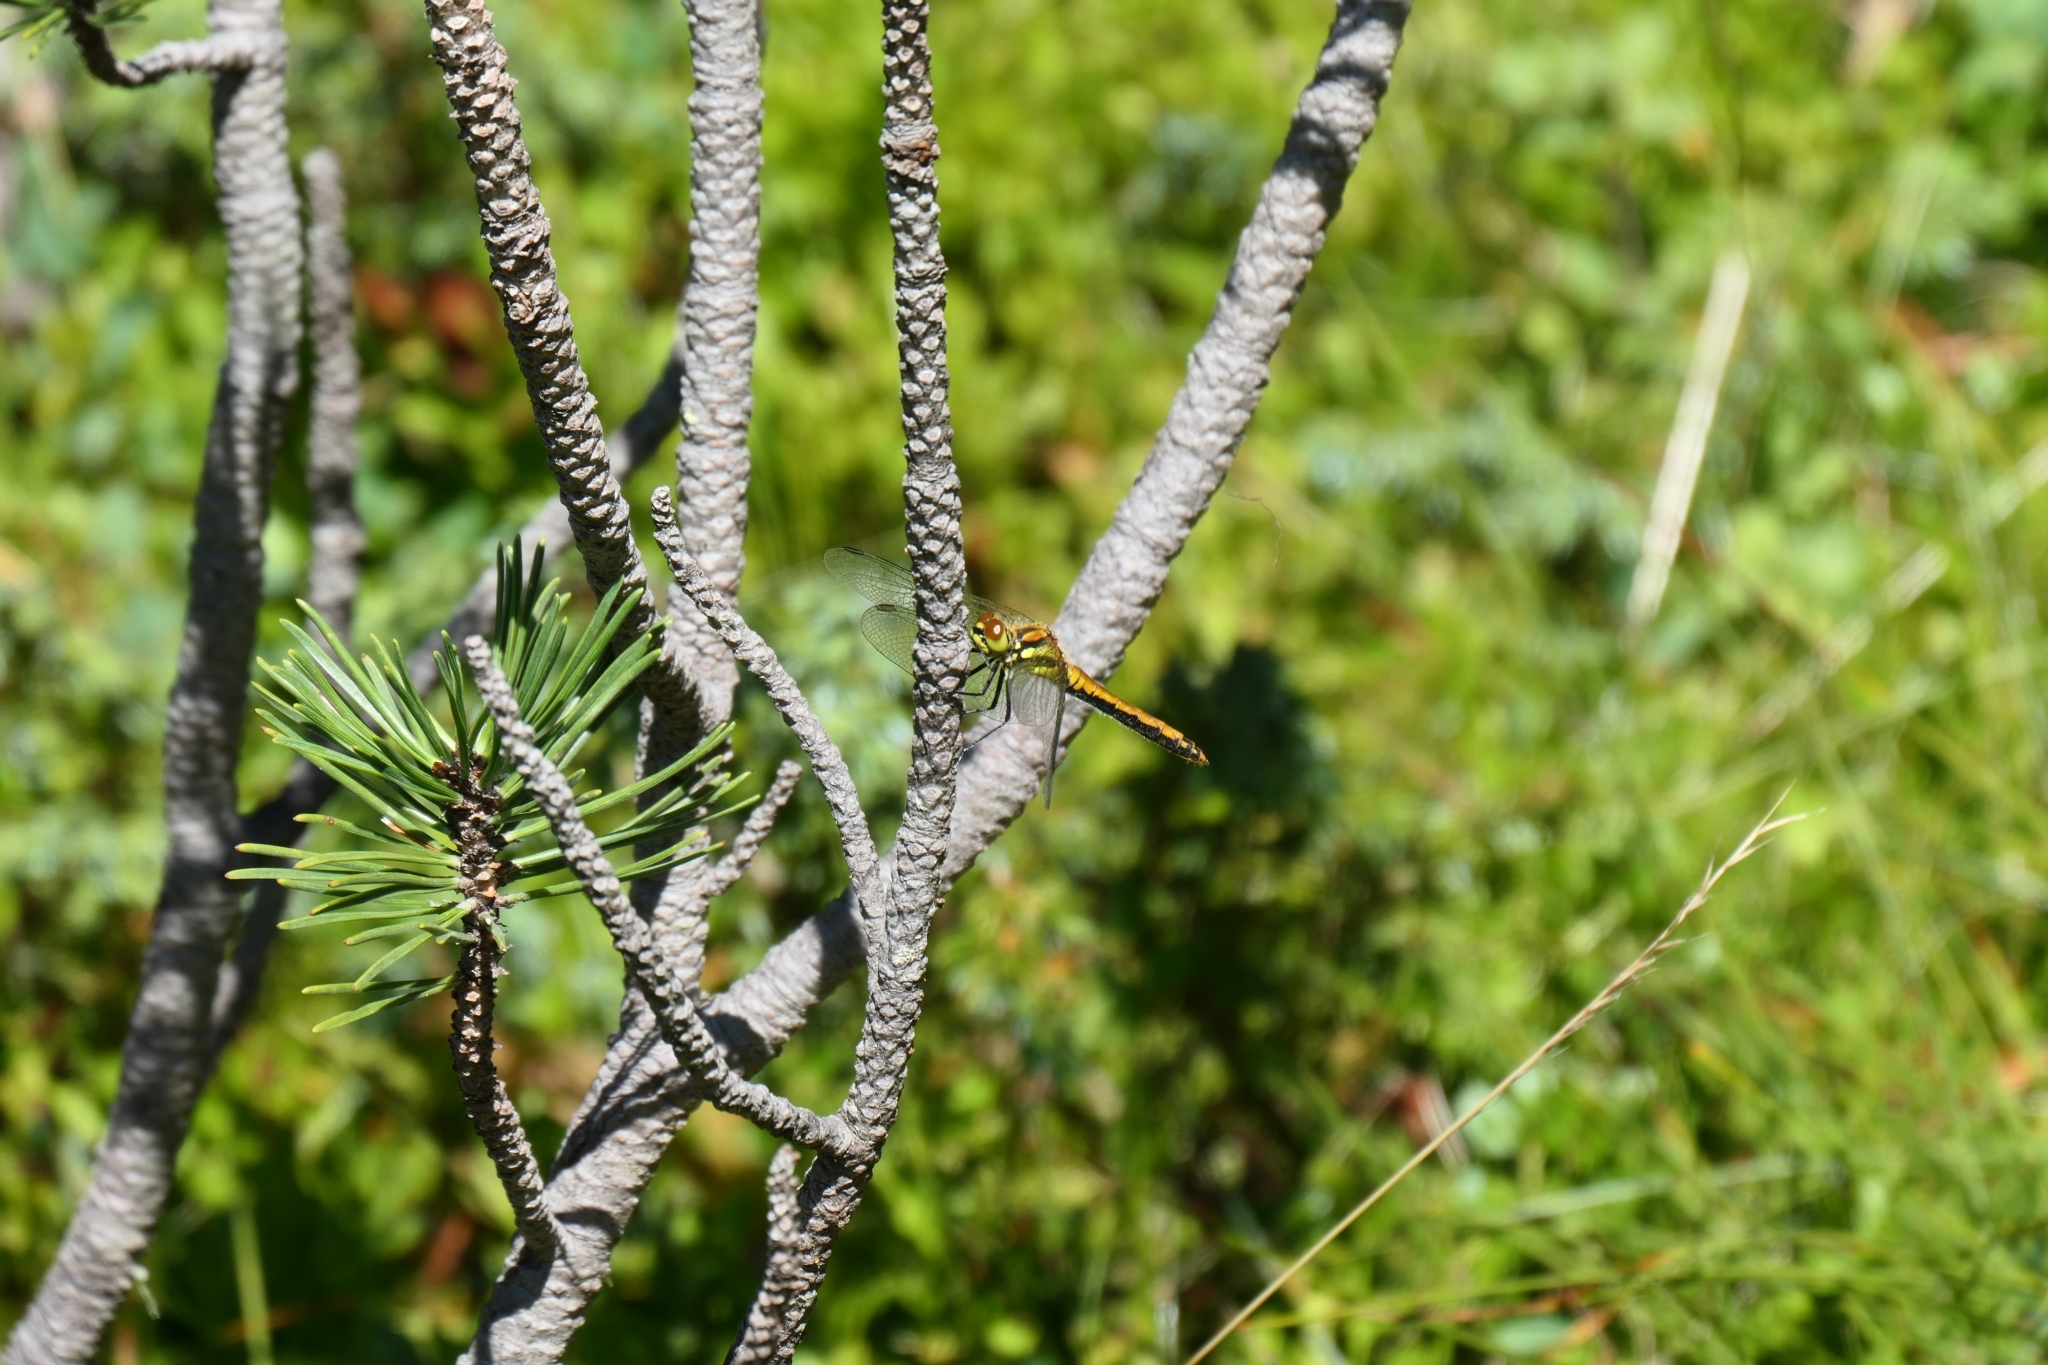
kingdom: Animalia
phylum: Arthropoda
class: Insecta
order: Odonata
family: Libellulidae
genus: Sympetrum
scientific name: Sympetrum danae
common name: Black darter
